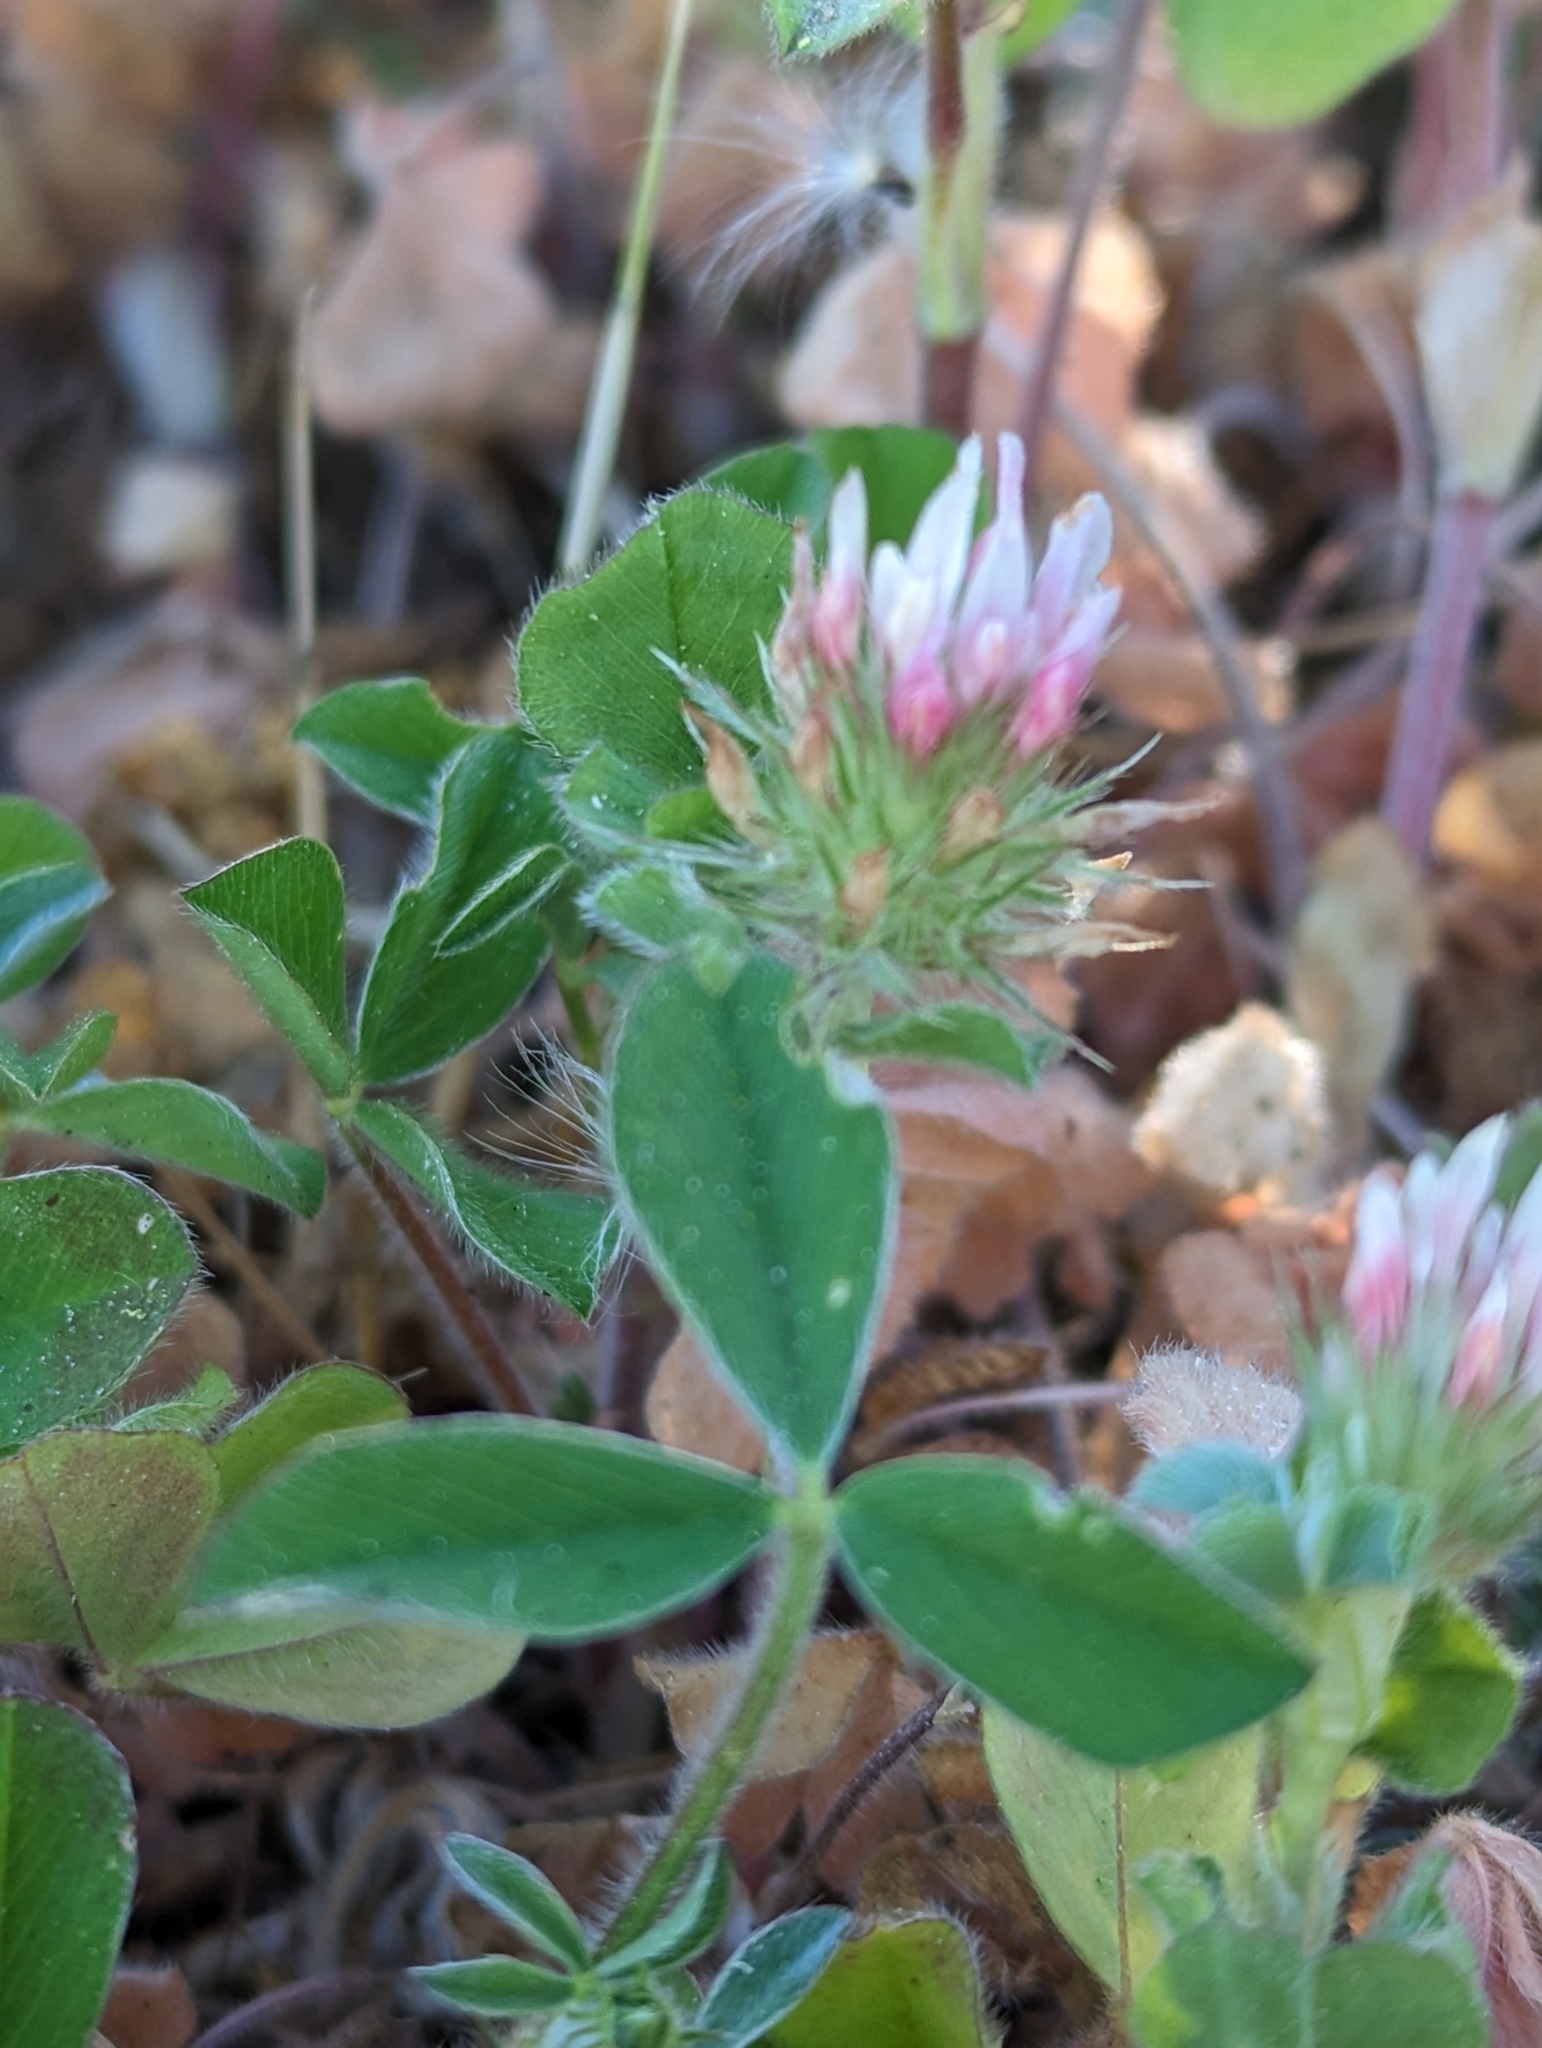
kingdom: Plantae
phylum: Tracheophyta
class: Magnoliopsida
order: Fabales
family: Fabaceae
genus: Trifolium
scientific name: Trifolium incarnatum
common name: Crimson clover
